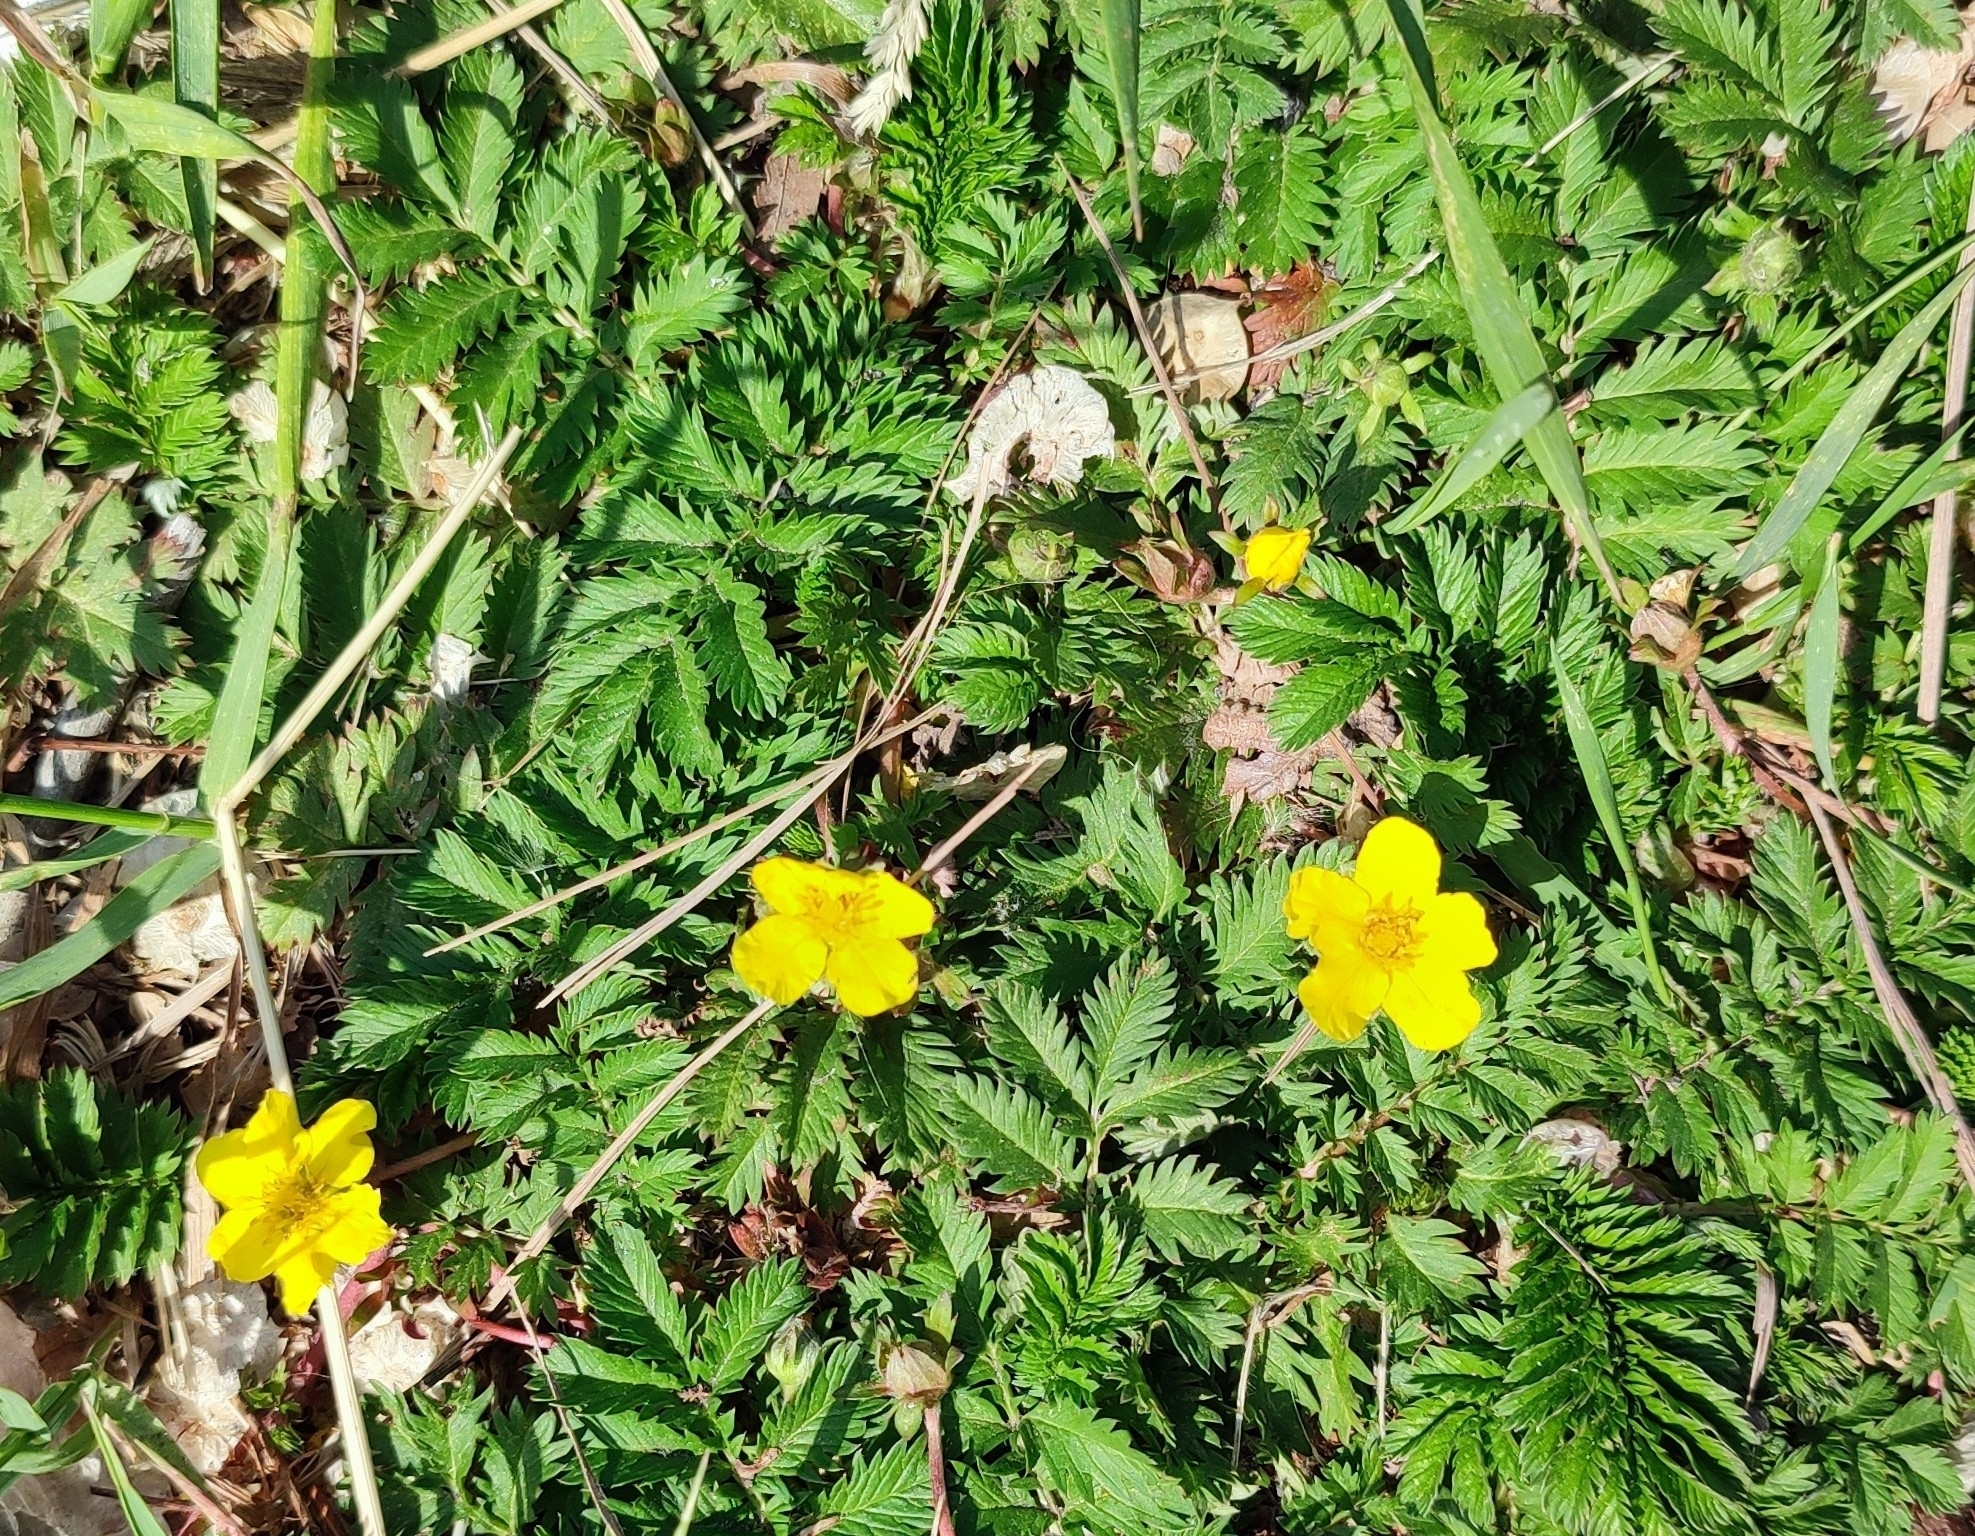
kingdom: Plantae
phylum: Tracheophyta
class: Magnoliopsida
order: Rosales
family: Rosaceae
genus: Argentina
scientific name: Argentina anserina
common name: Common silverweed
